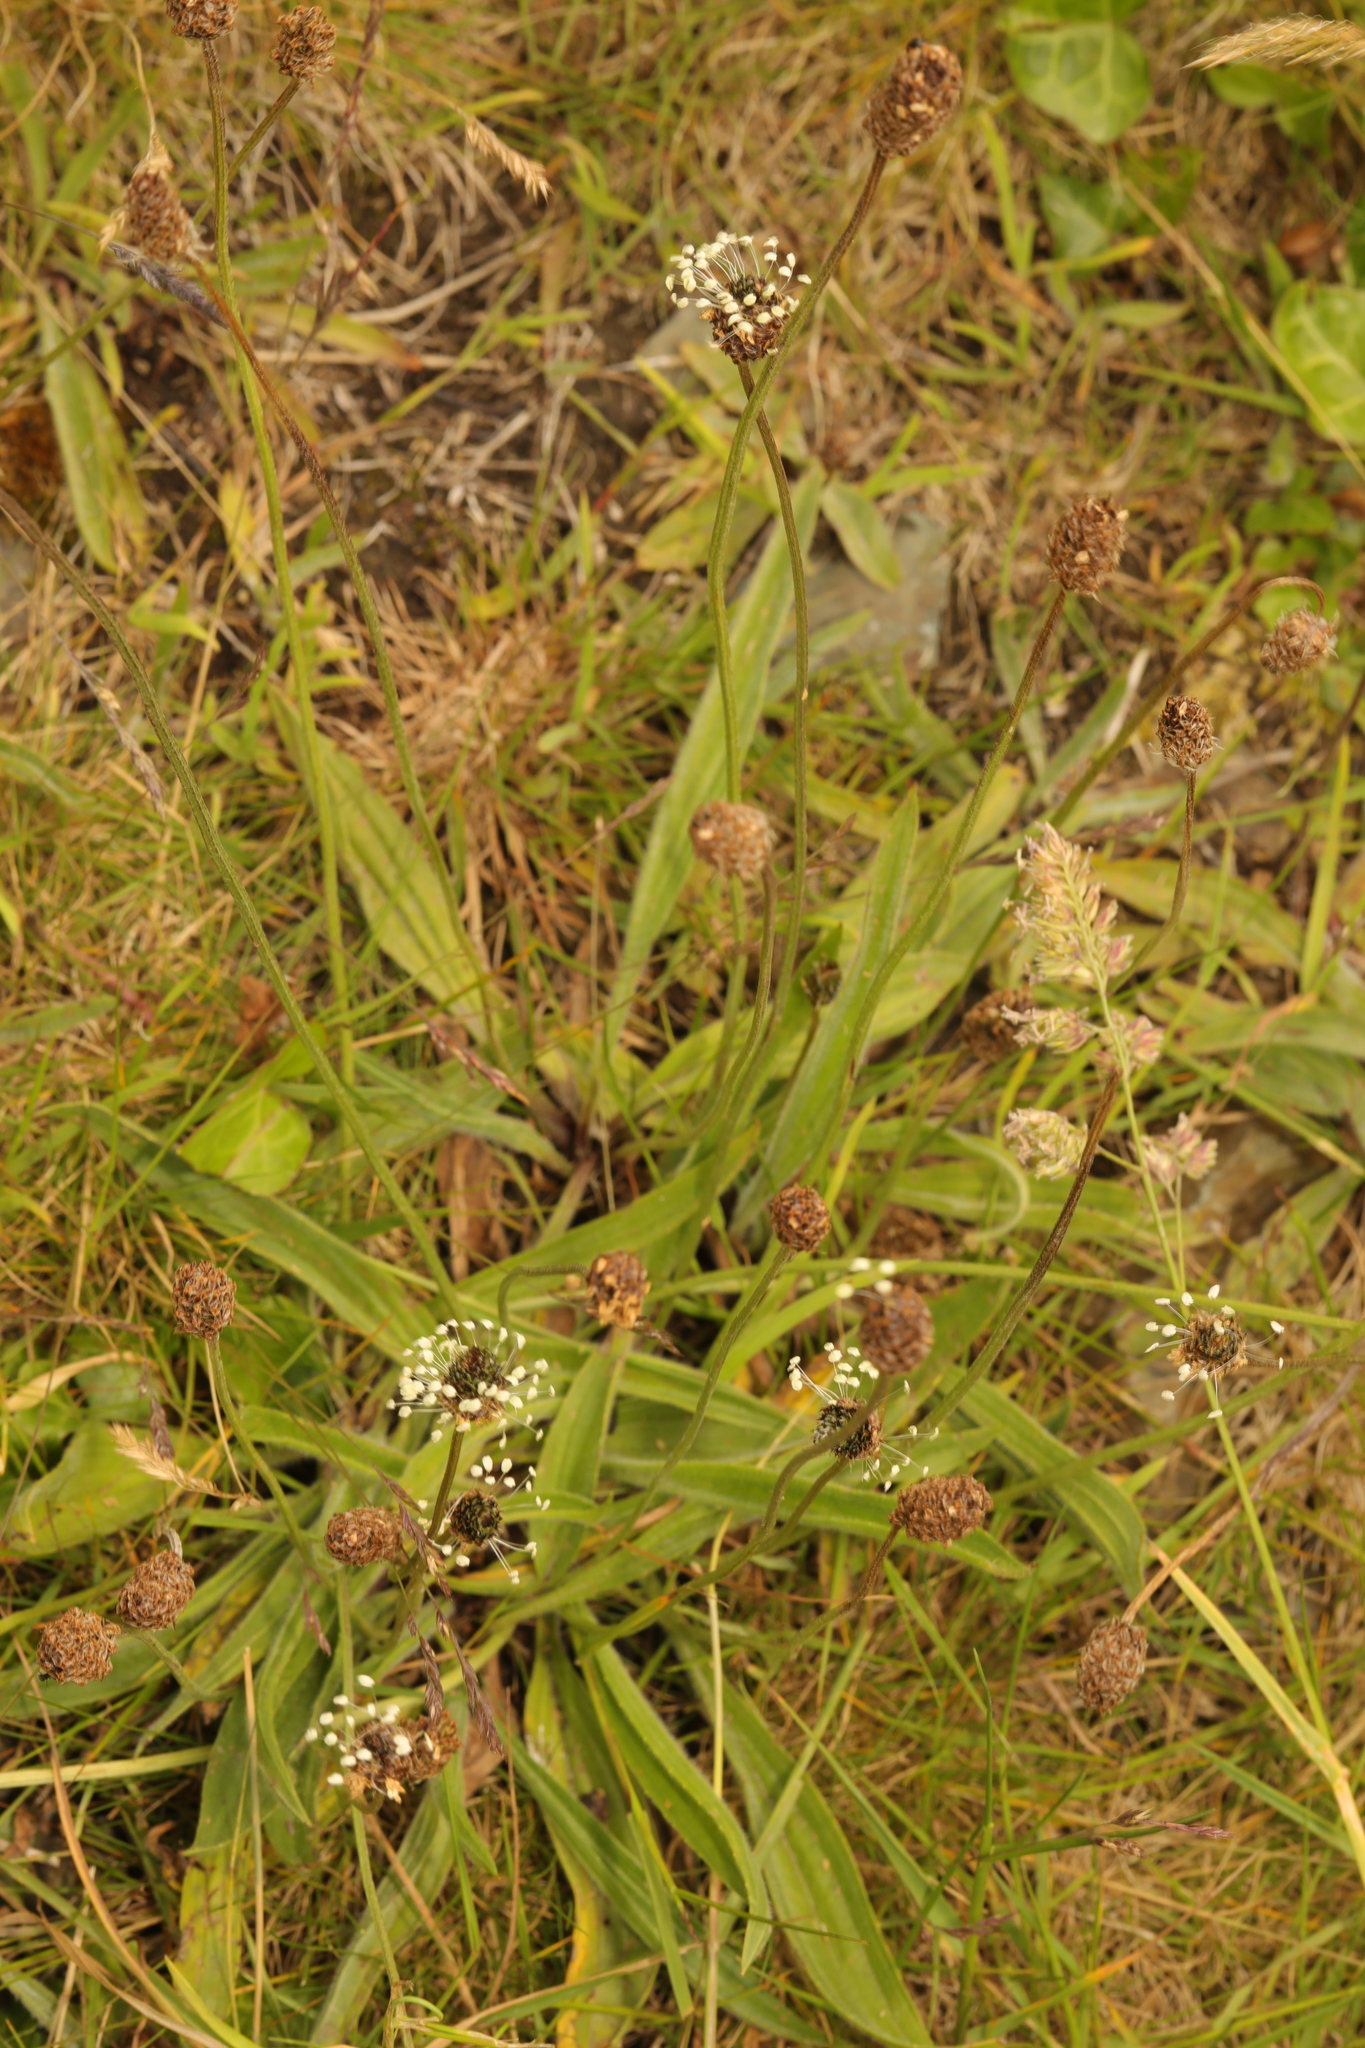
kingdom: Plantae
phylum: Tracheophyta
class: Magnoliopsida
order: Lamiales
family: Plantaginaceae
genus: Plantago
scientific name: Plantago lanceolata
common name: Ribwort plantain
